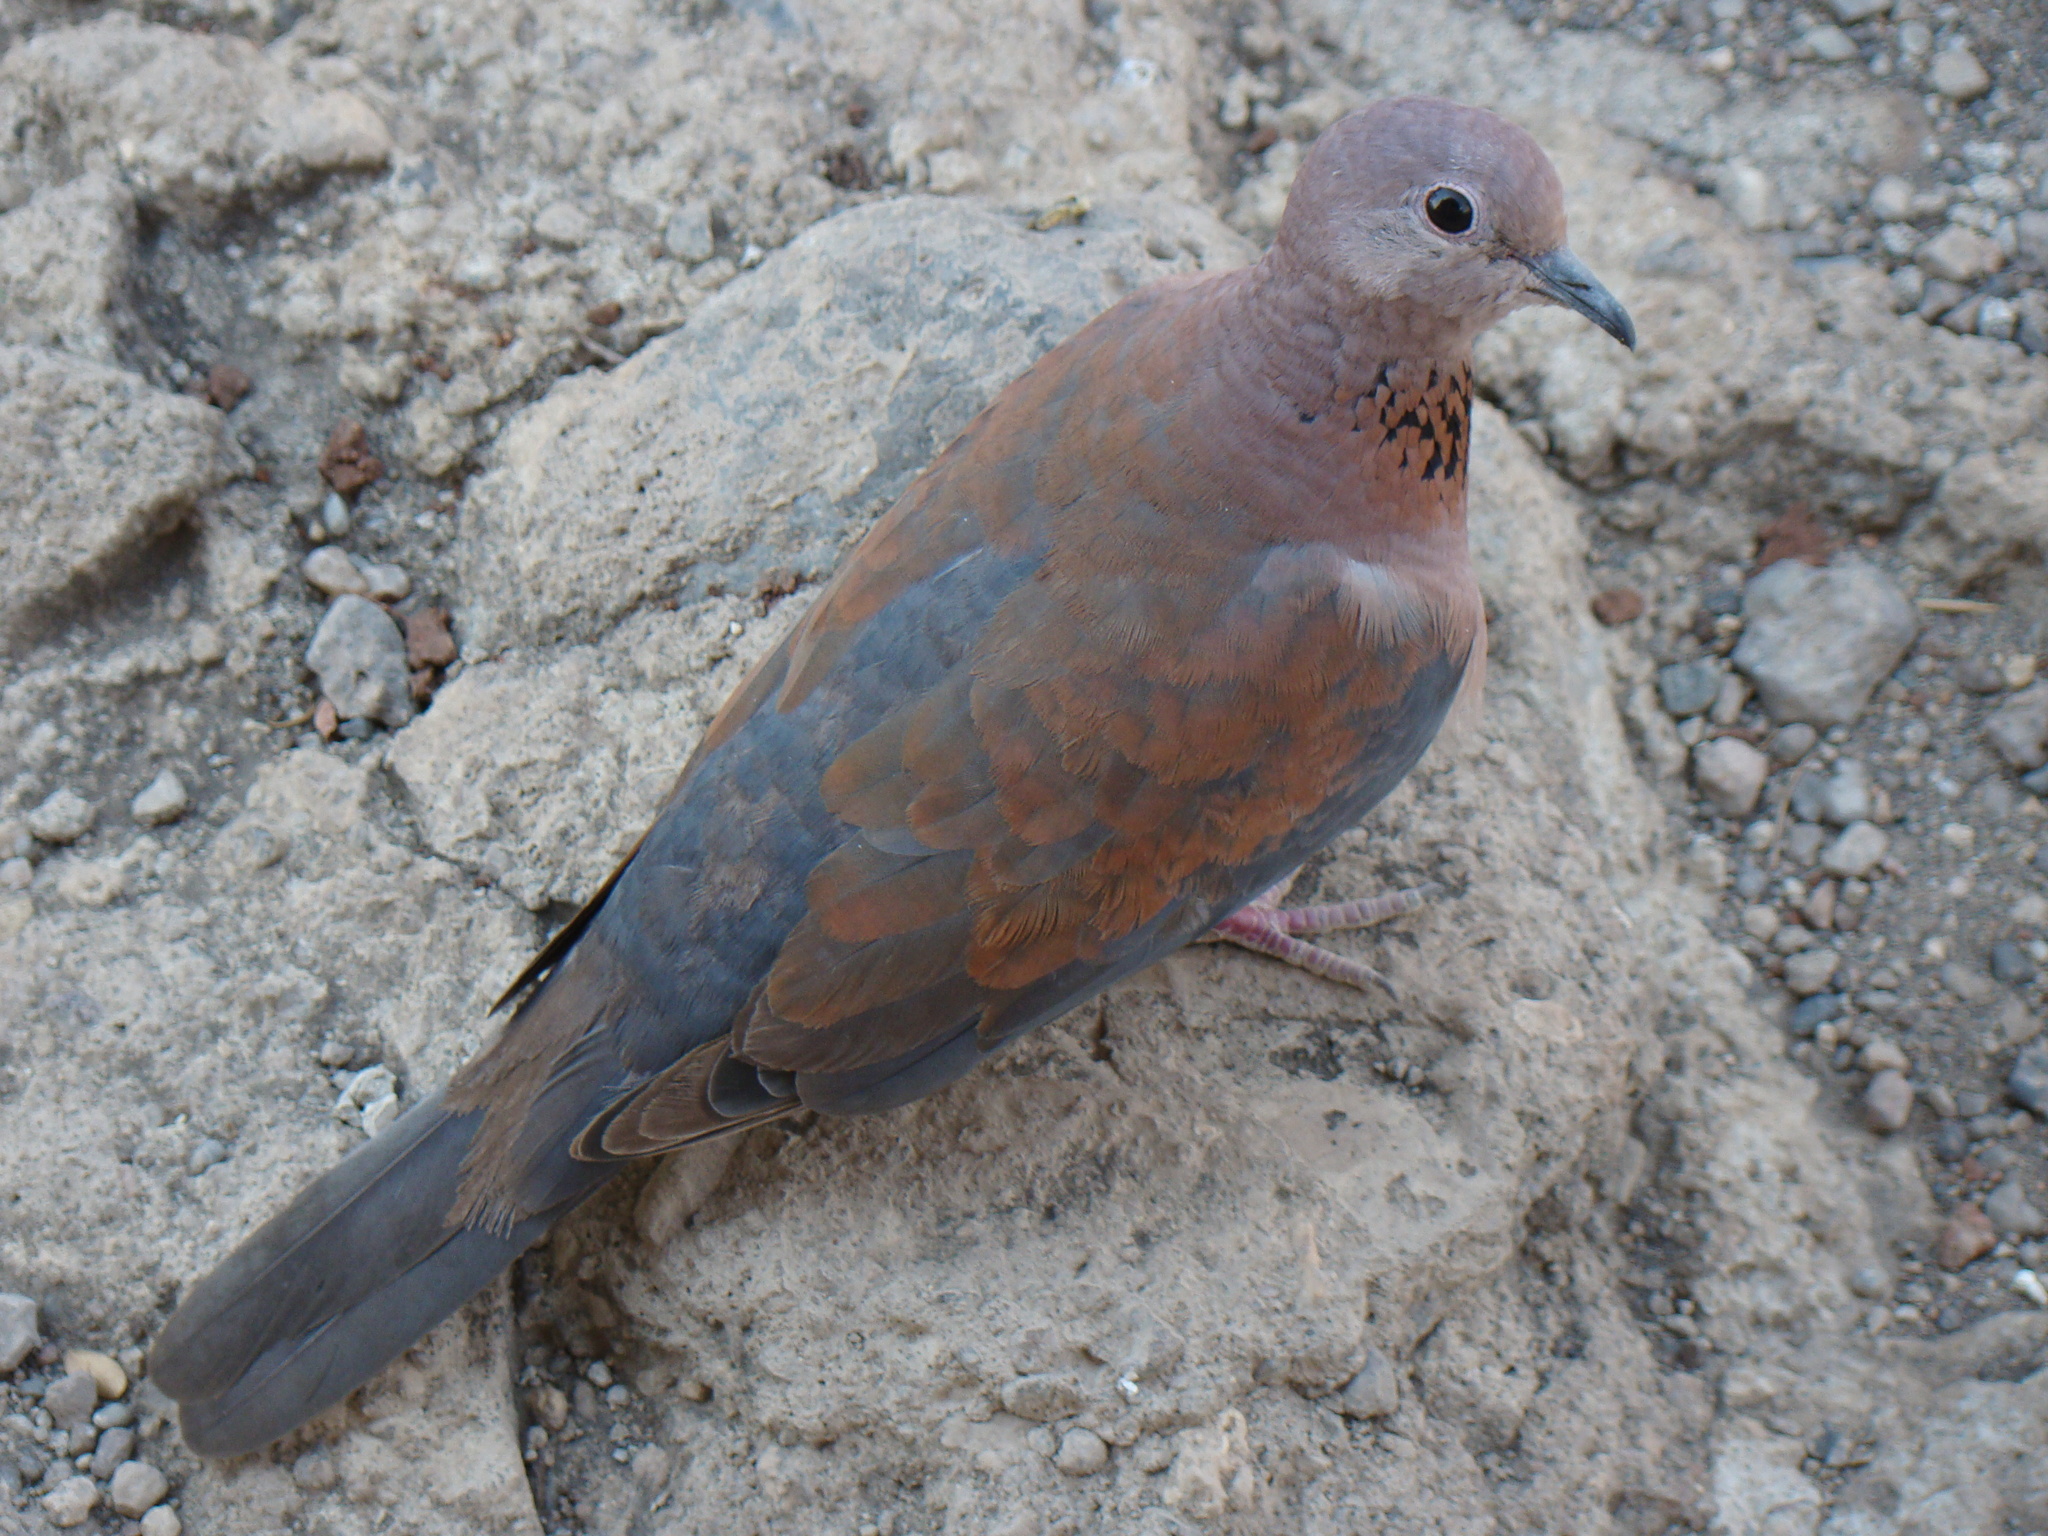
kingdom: Animalia
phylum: Chordata
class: Aves
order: Columbiformes
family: Columbidae
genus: Spilopelia
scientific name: Spilopelia senegalensis
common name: Laughing dove
